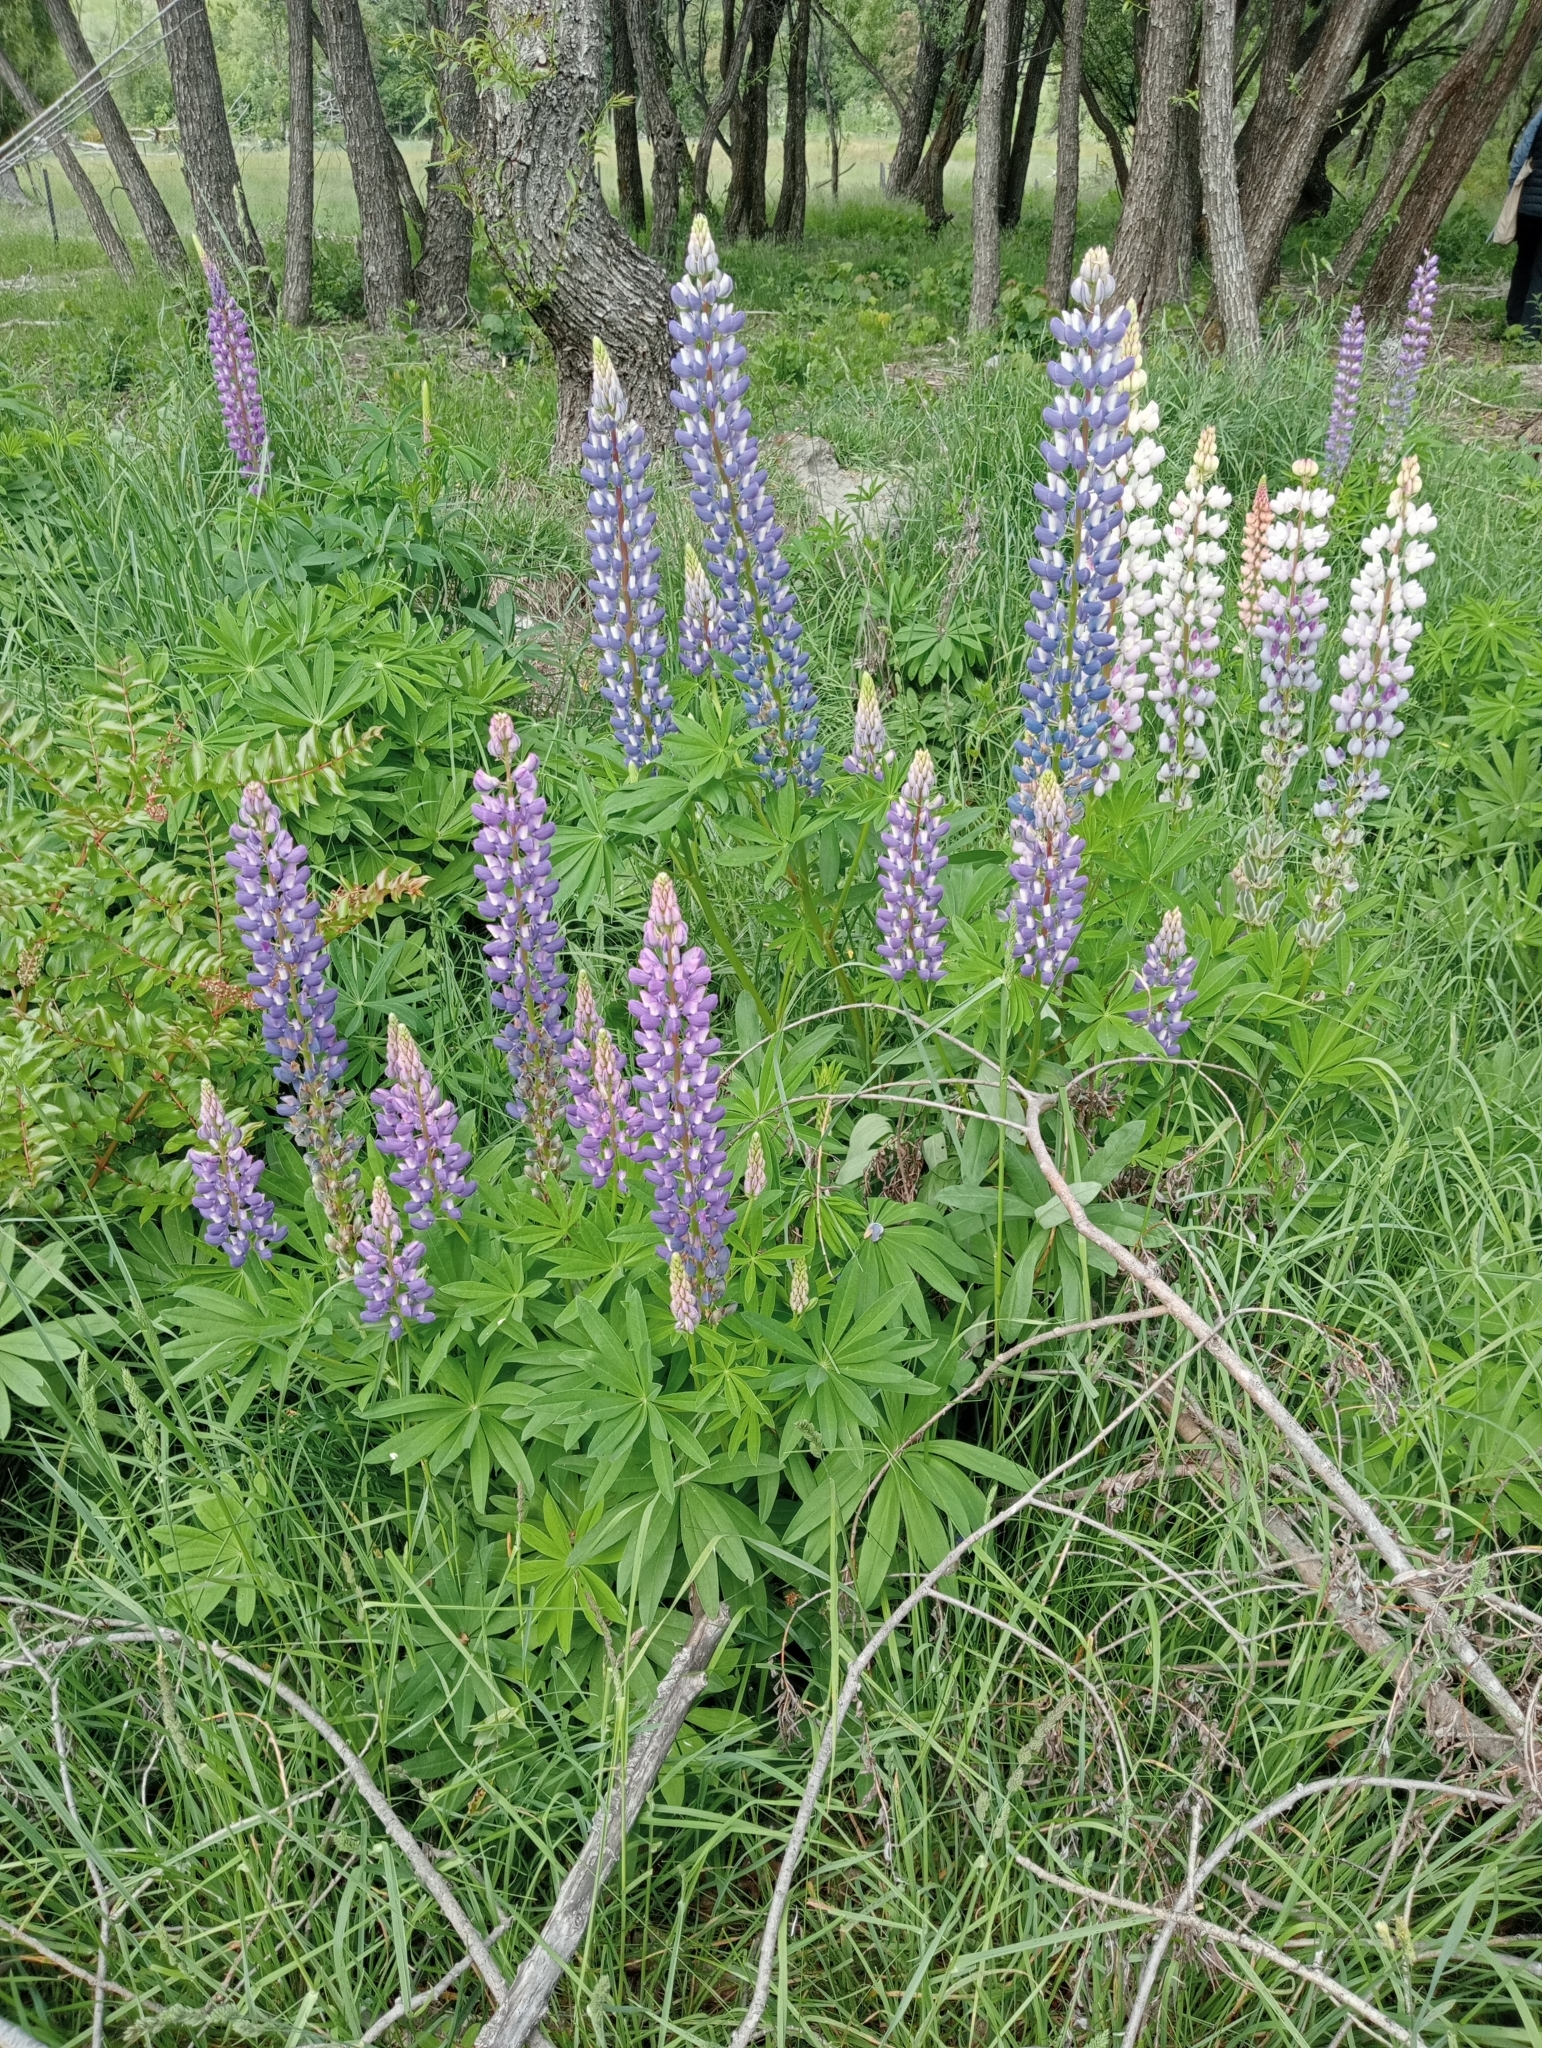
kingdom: Plantae
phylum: Tracheophyta
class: Magnoliopsida
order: Fabales
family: Fabaceae
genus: Lupinus
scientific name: Lupinus polyphyllus
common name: Garden lupin
